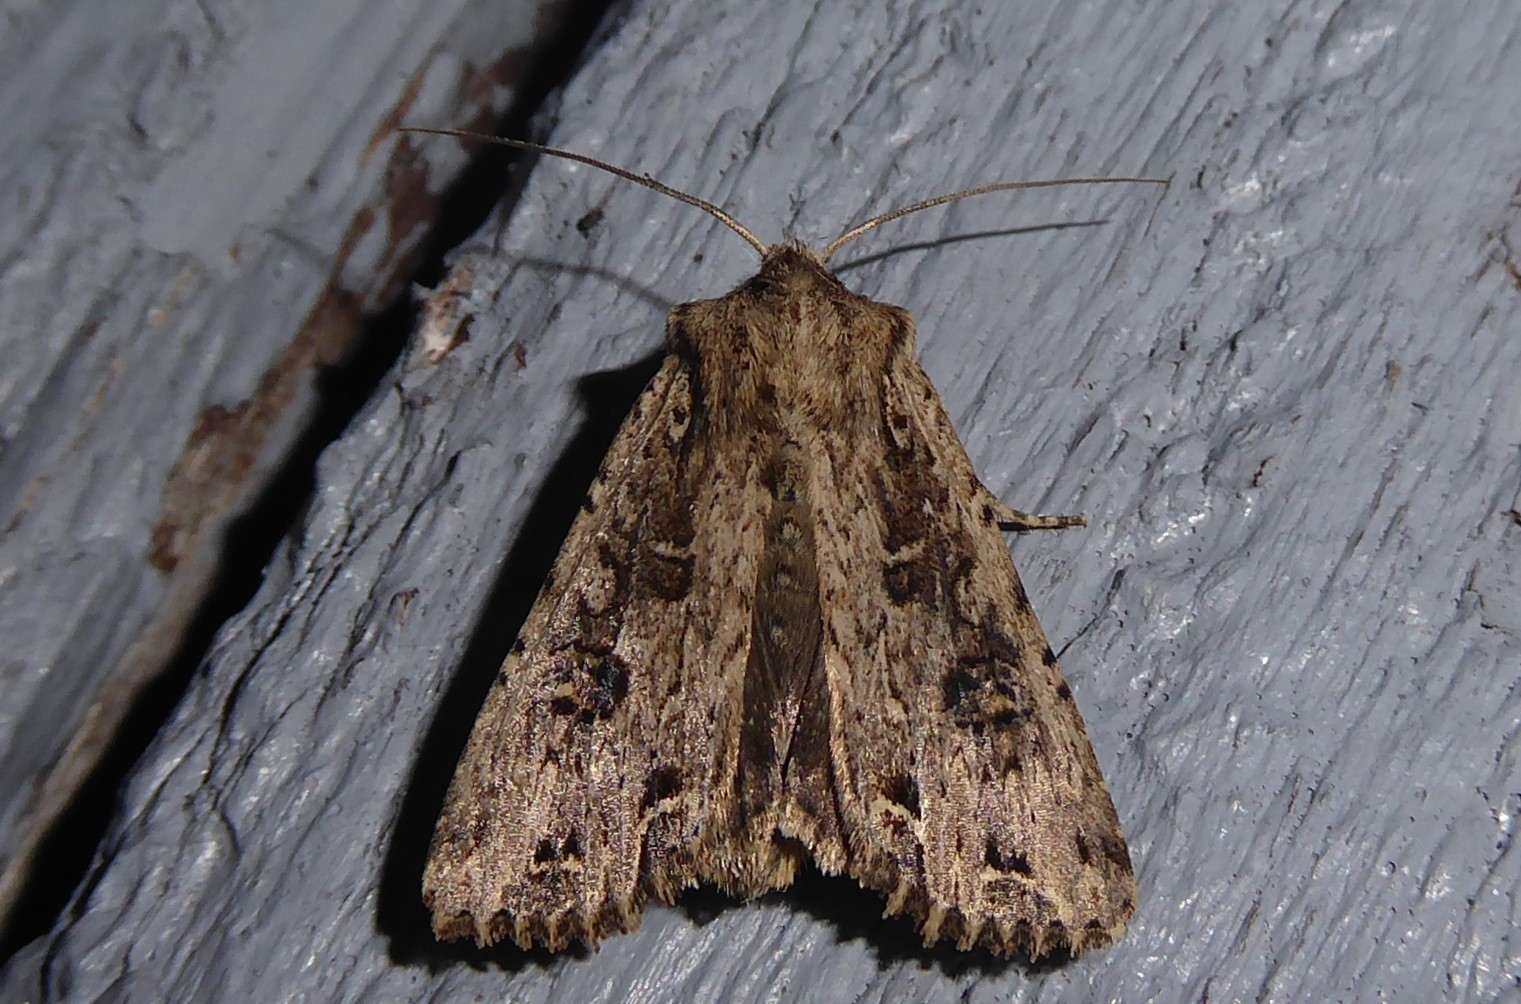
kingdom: Animalia
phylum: Arthropoda
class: Insecta
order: Lepidoptera
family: Noctuidae
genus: Ichneutica
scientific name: Ichneutica lignana
